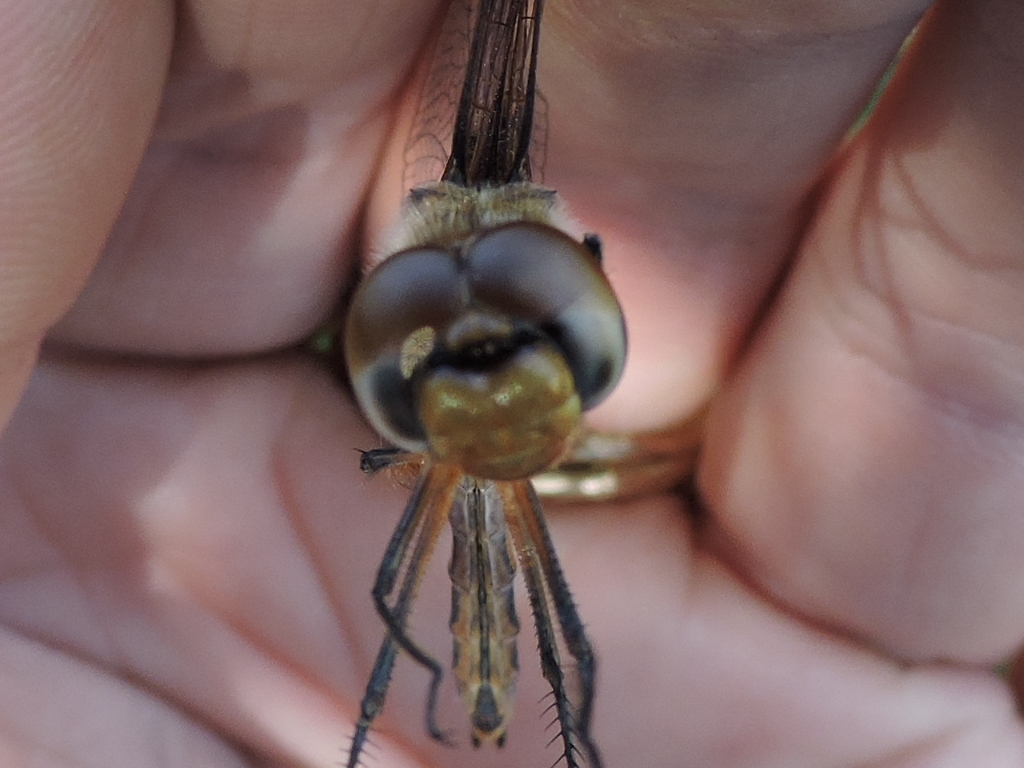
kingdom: Animalia
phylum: Arthropoda
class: Insecta
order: Odonata
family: Libellulidae
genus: Tramea
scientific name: Tramea onusta
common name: Red saddlebags
